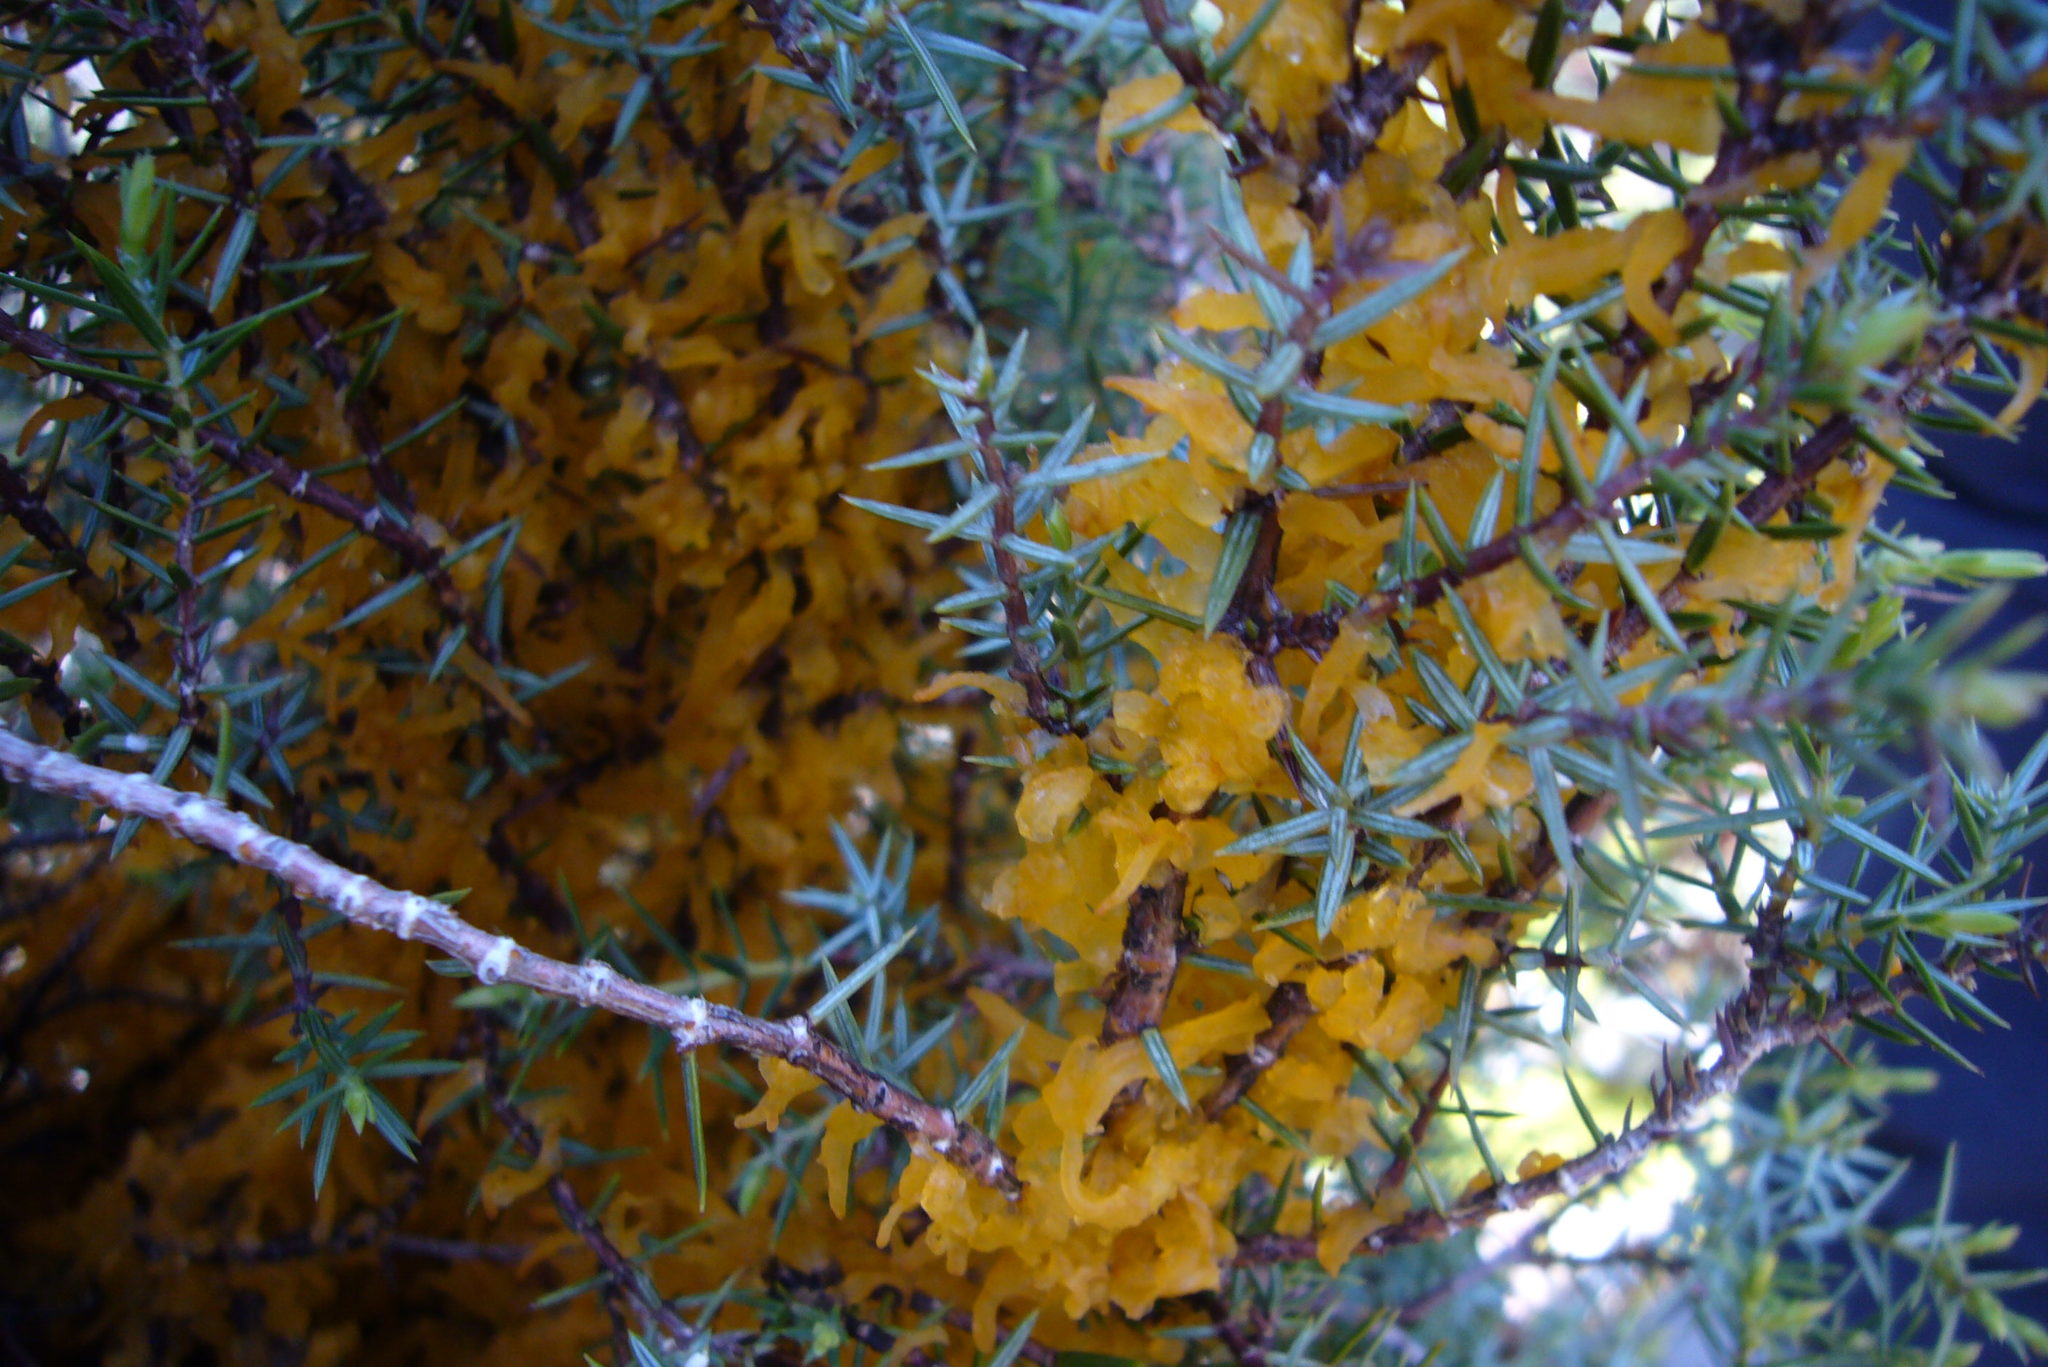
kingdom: Fungi
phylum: Basidiomycota
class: Pucciniomycetes
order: Pucciniales
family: Gymnosporangiaceae
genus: Gymnosporangium
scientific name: Gymnosporangium clavariiforme
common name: Tongues of fire
